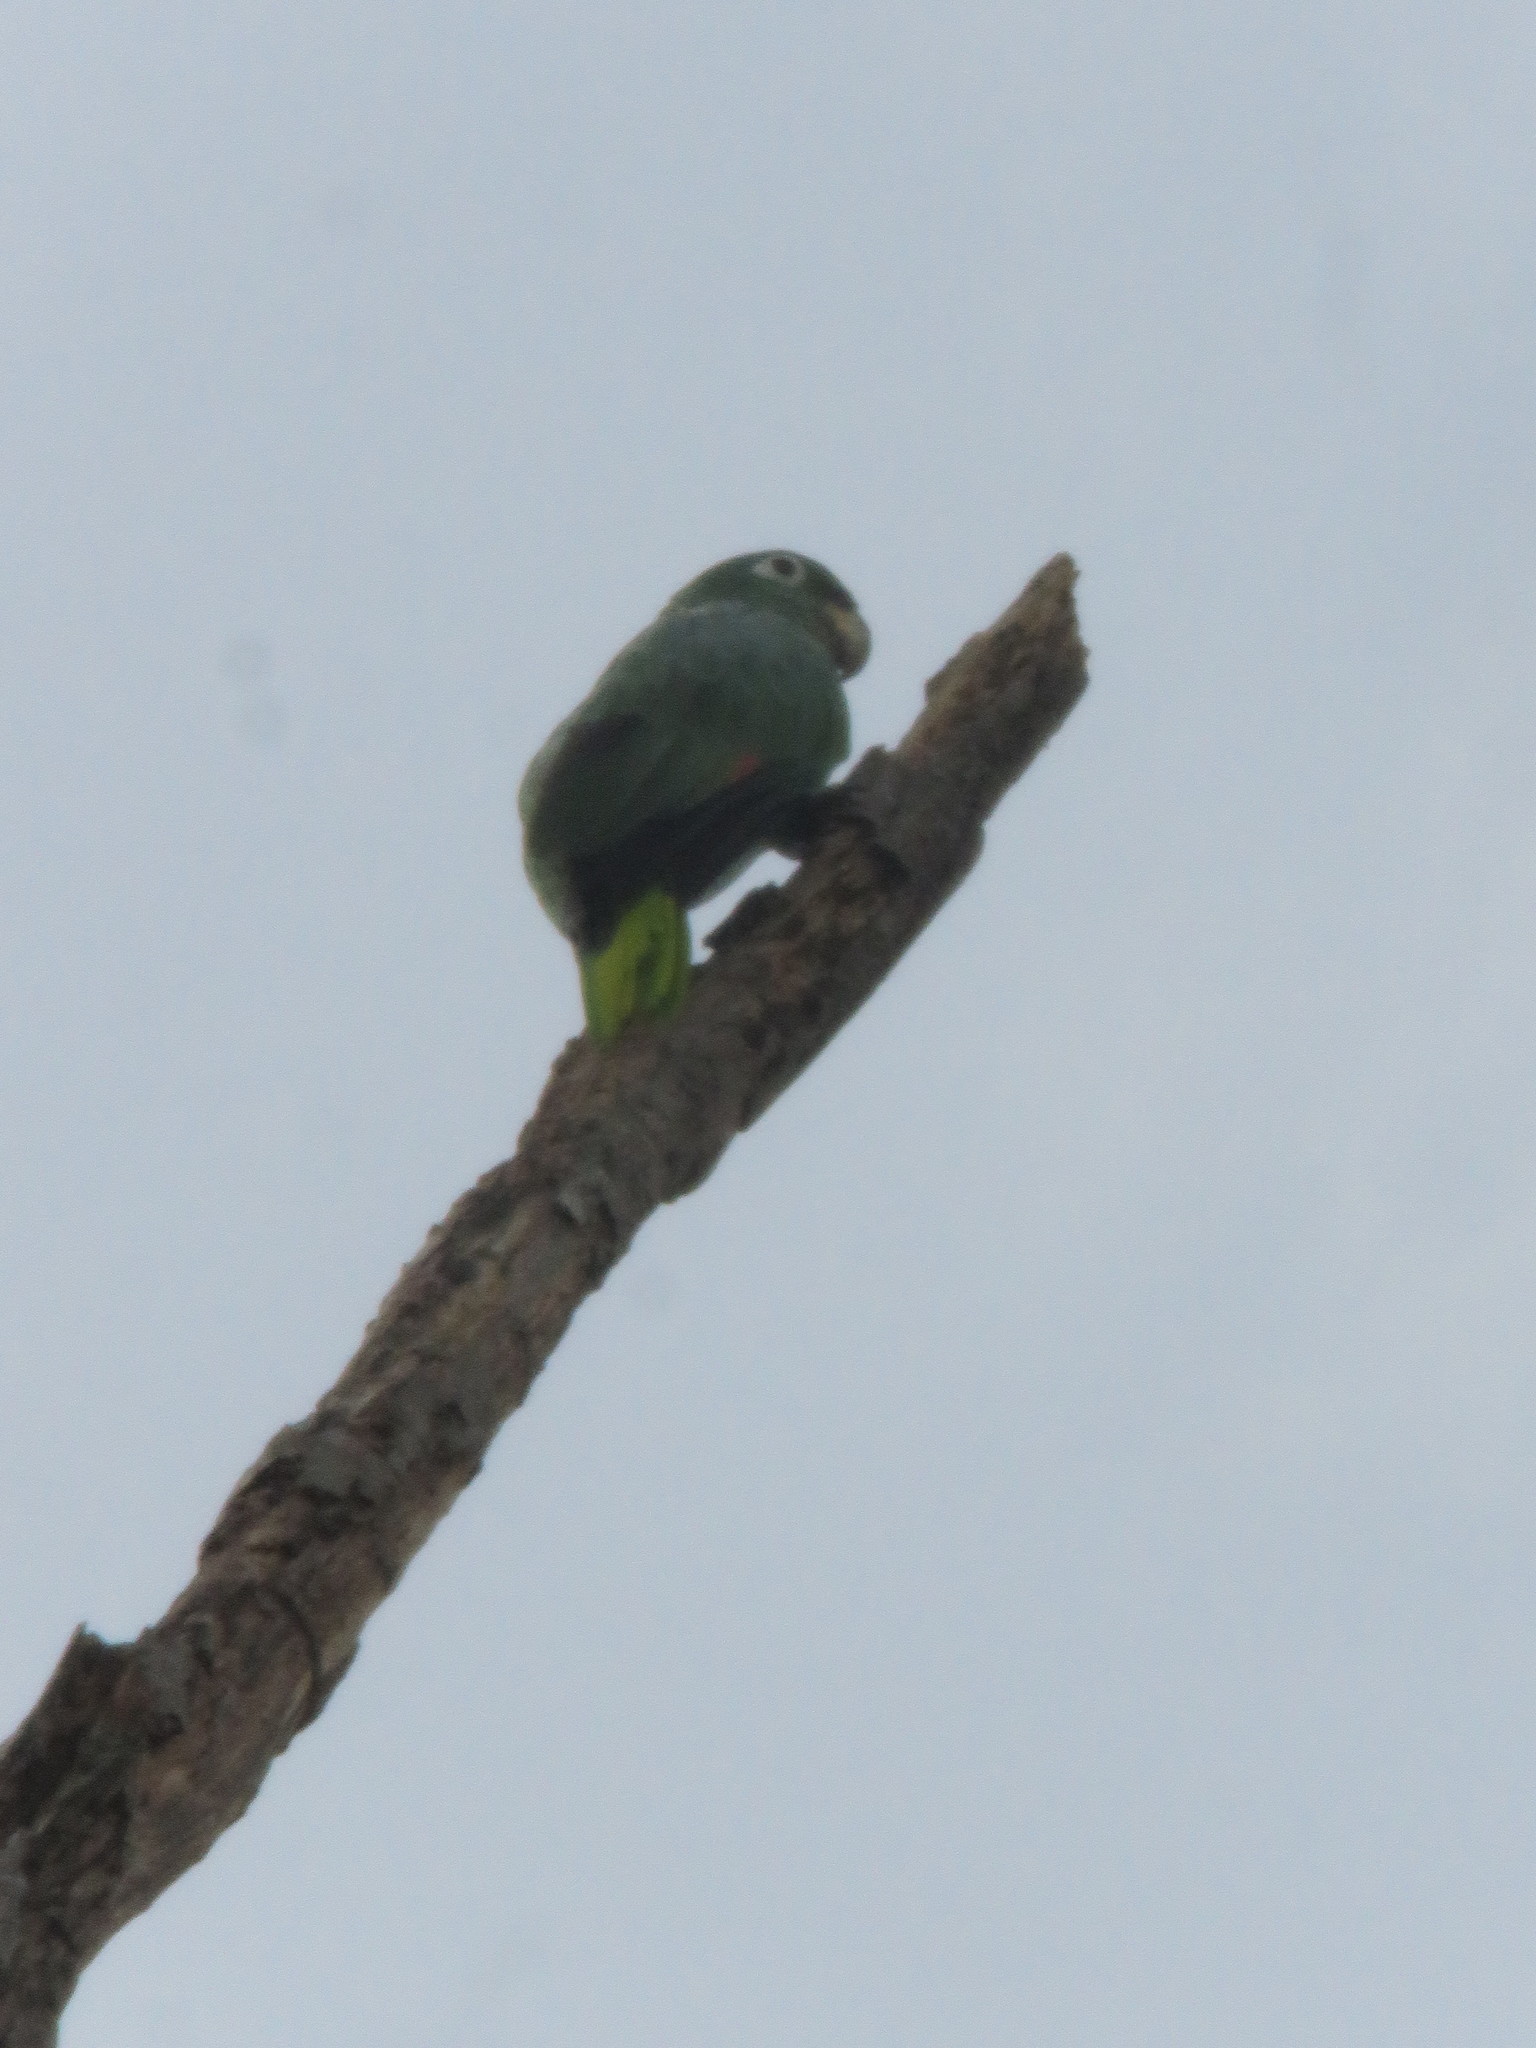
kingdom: Animalia
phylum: Chordata
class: Aves
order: Psittaciformes
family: Psittacidae
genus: Amazona
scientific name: Amazona farinosa
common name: Mealy parrot
